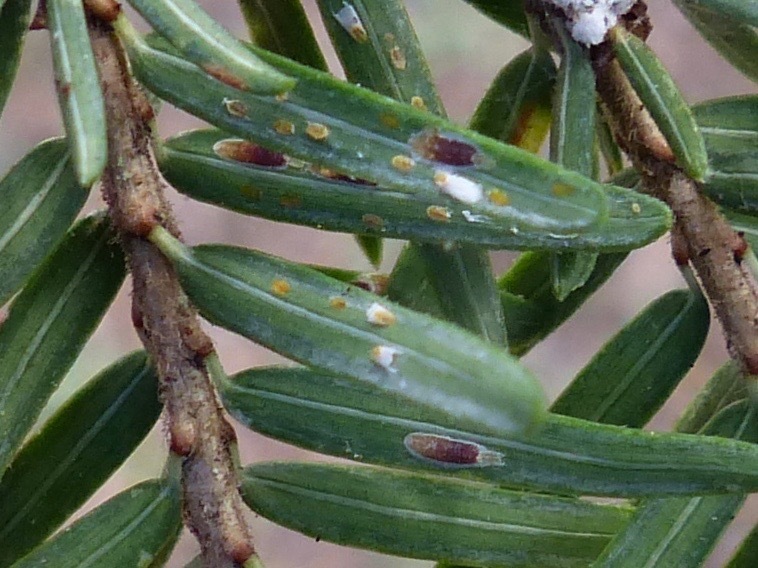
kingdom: Animalia
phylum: Arthropoda
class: Insecta
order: Hemiptera
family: Diaspididae
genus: Fiorinia
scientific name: Fiorinia externa
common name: Elongate hemlock scale
